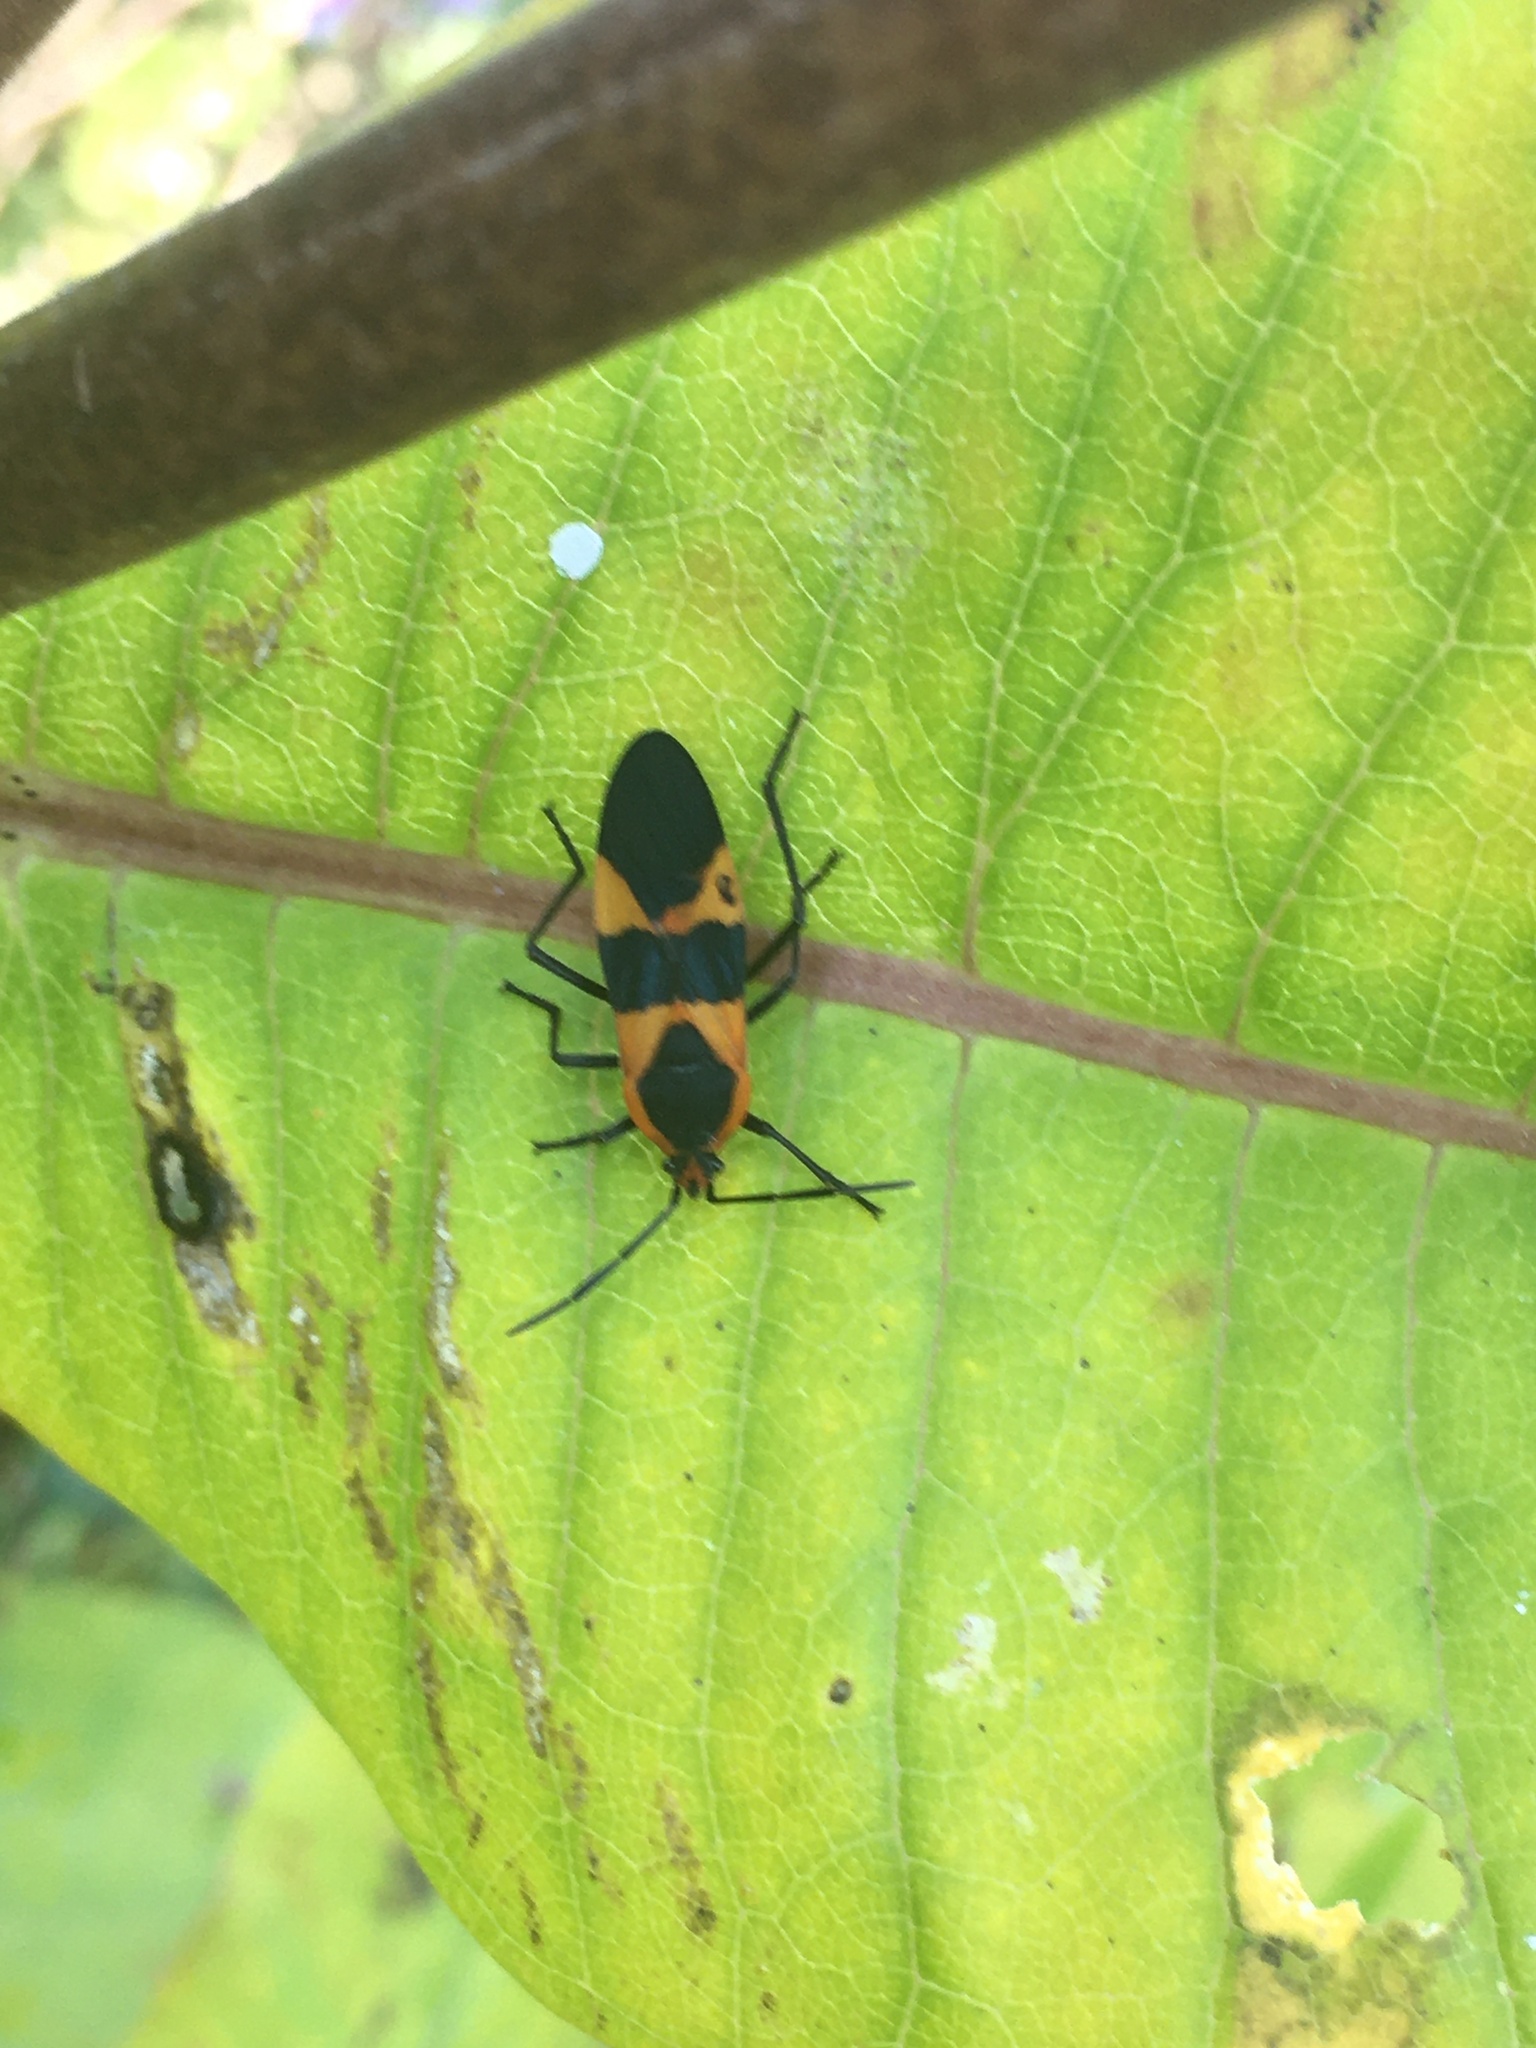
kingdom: Animalia
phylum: Arthropoda
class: Insecta
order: Hemiptera
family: Lygaeidae
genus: Oncopeltus
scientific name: Oncopeltus fasciatus
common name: Large milkweed bug
